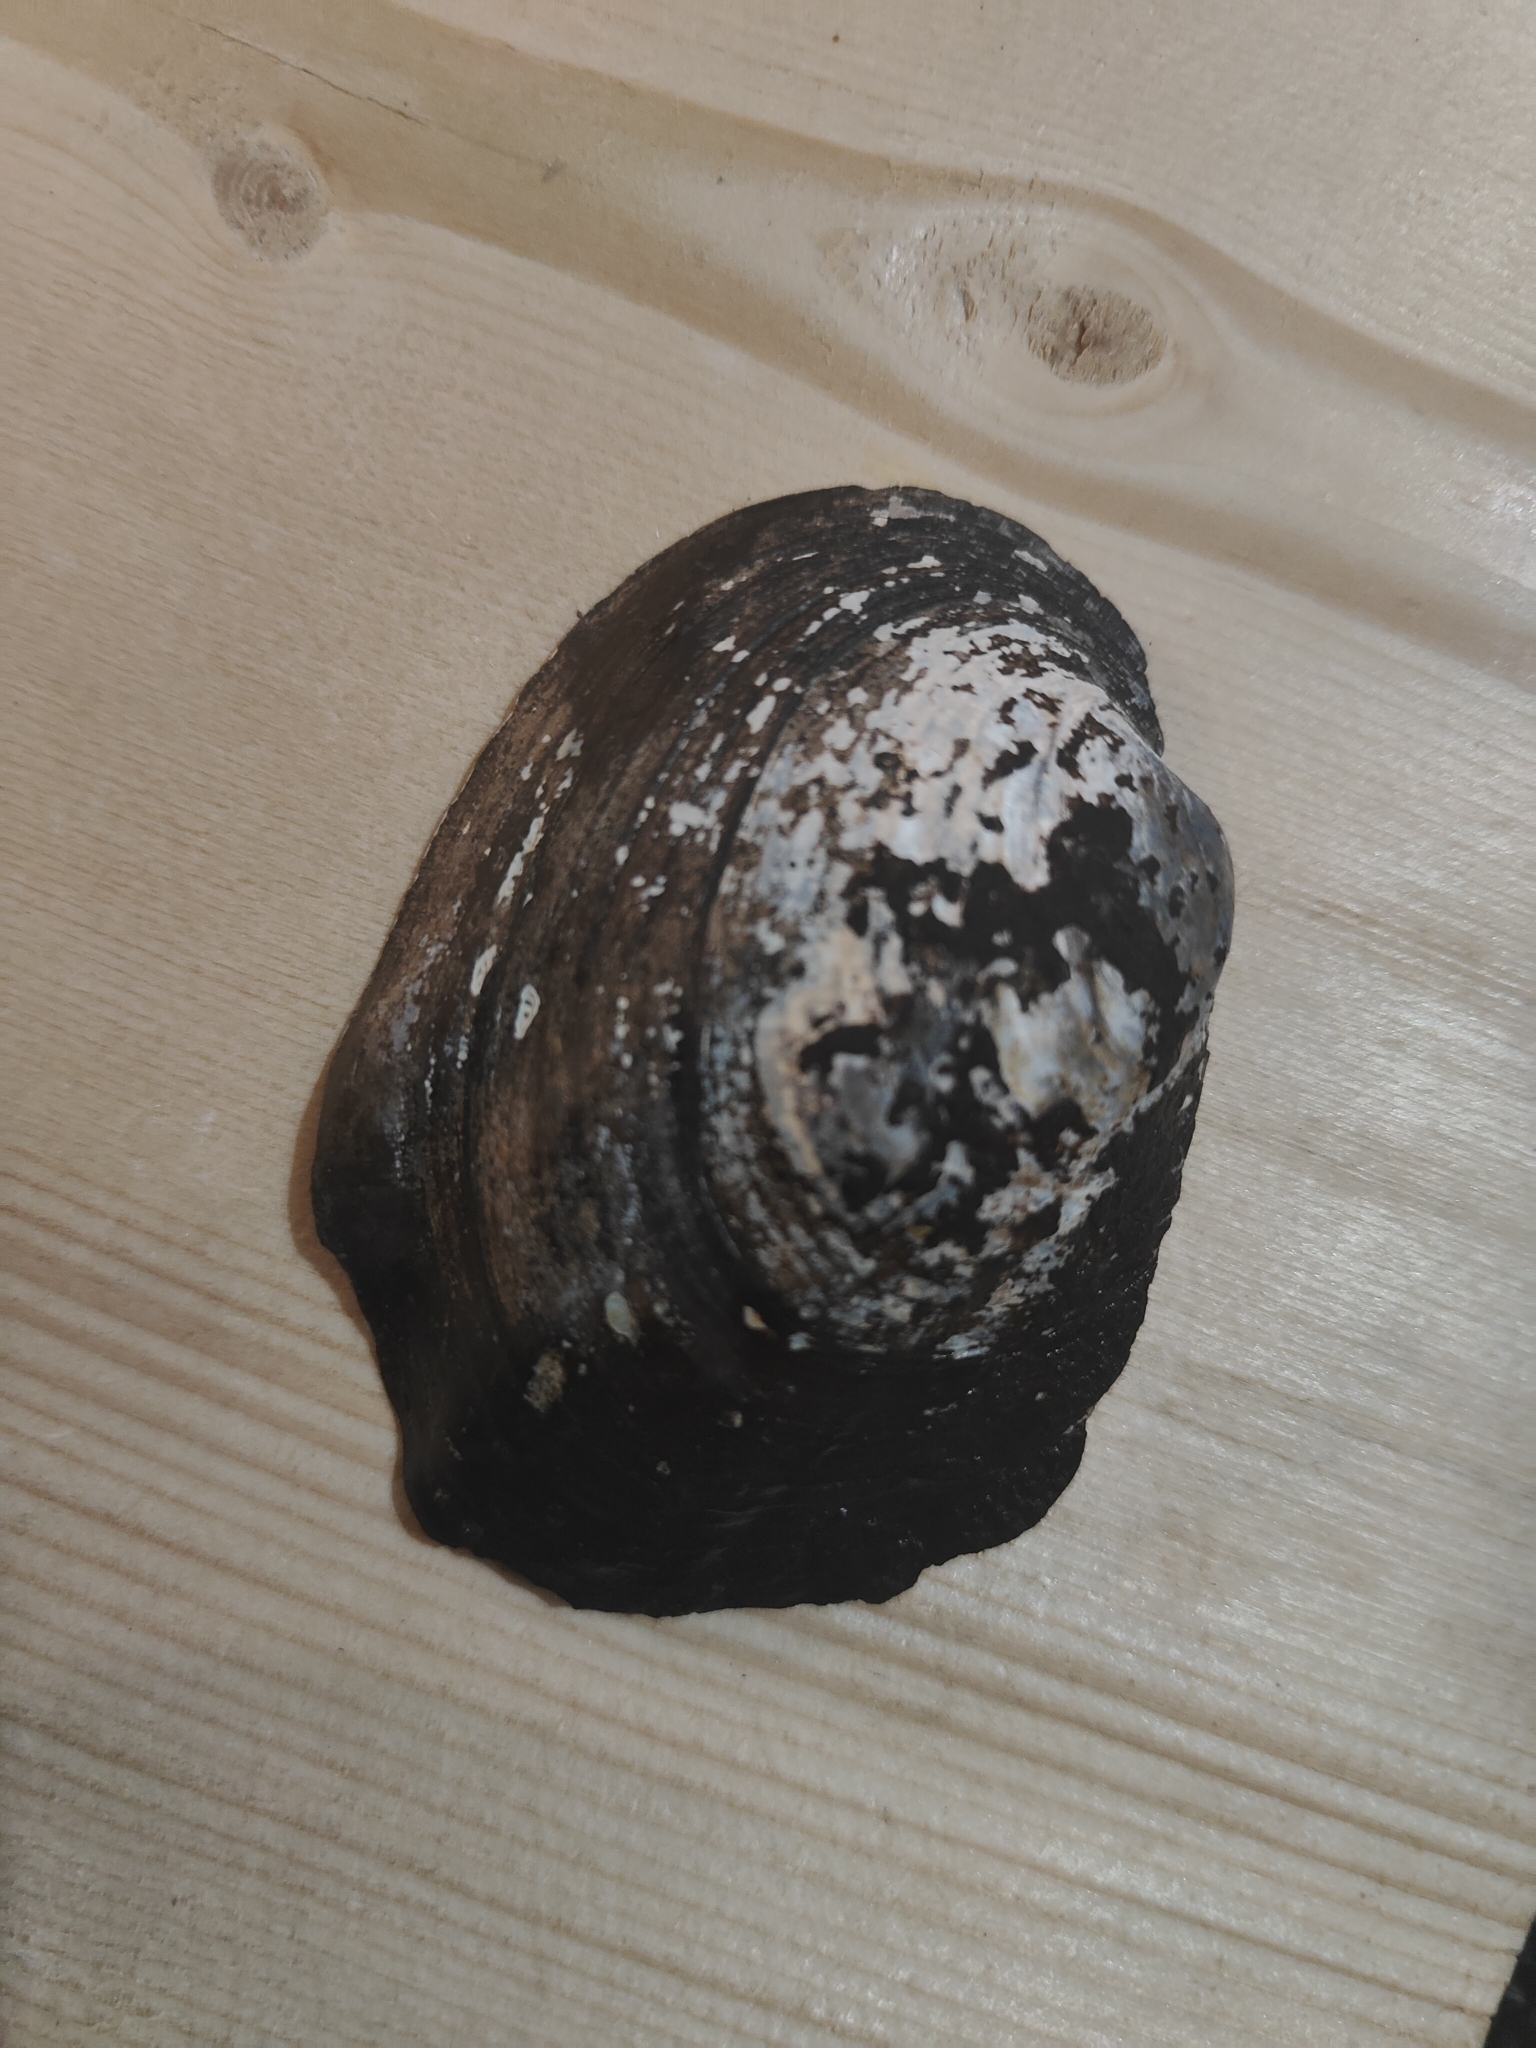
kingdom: Animalia
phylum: Mollusca
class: Bivalvia
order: Unionida
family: Unionidae
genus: Amblema
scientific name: Amblema plicata
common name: Threeridge
